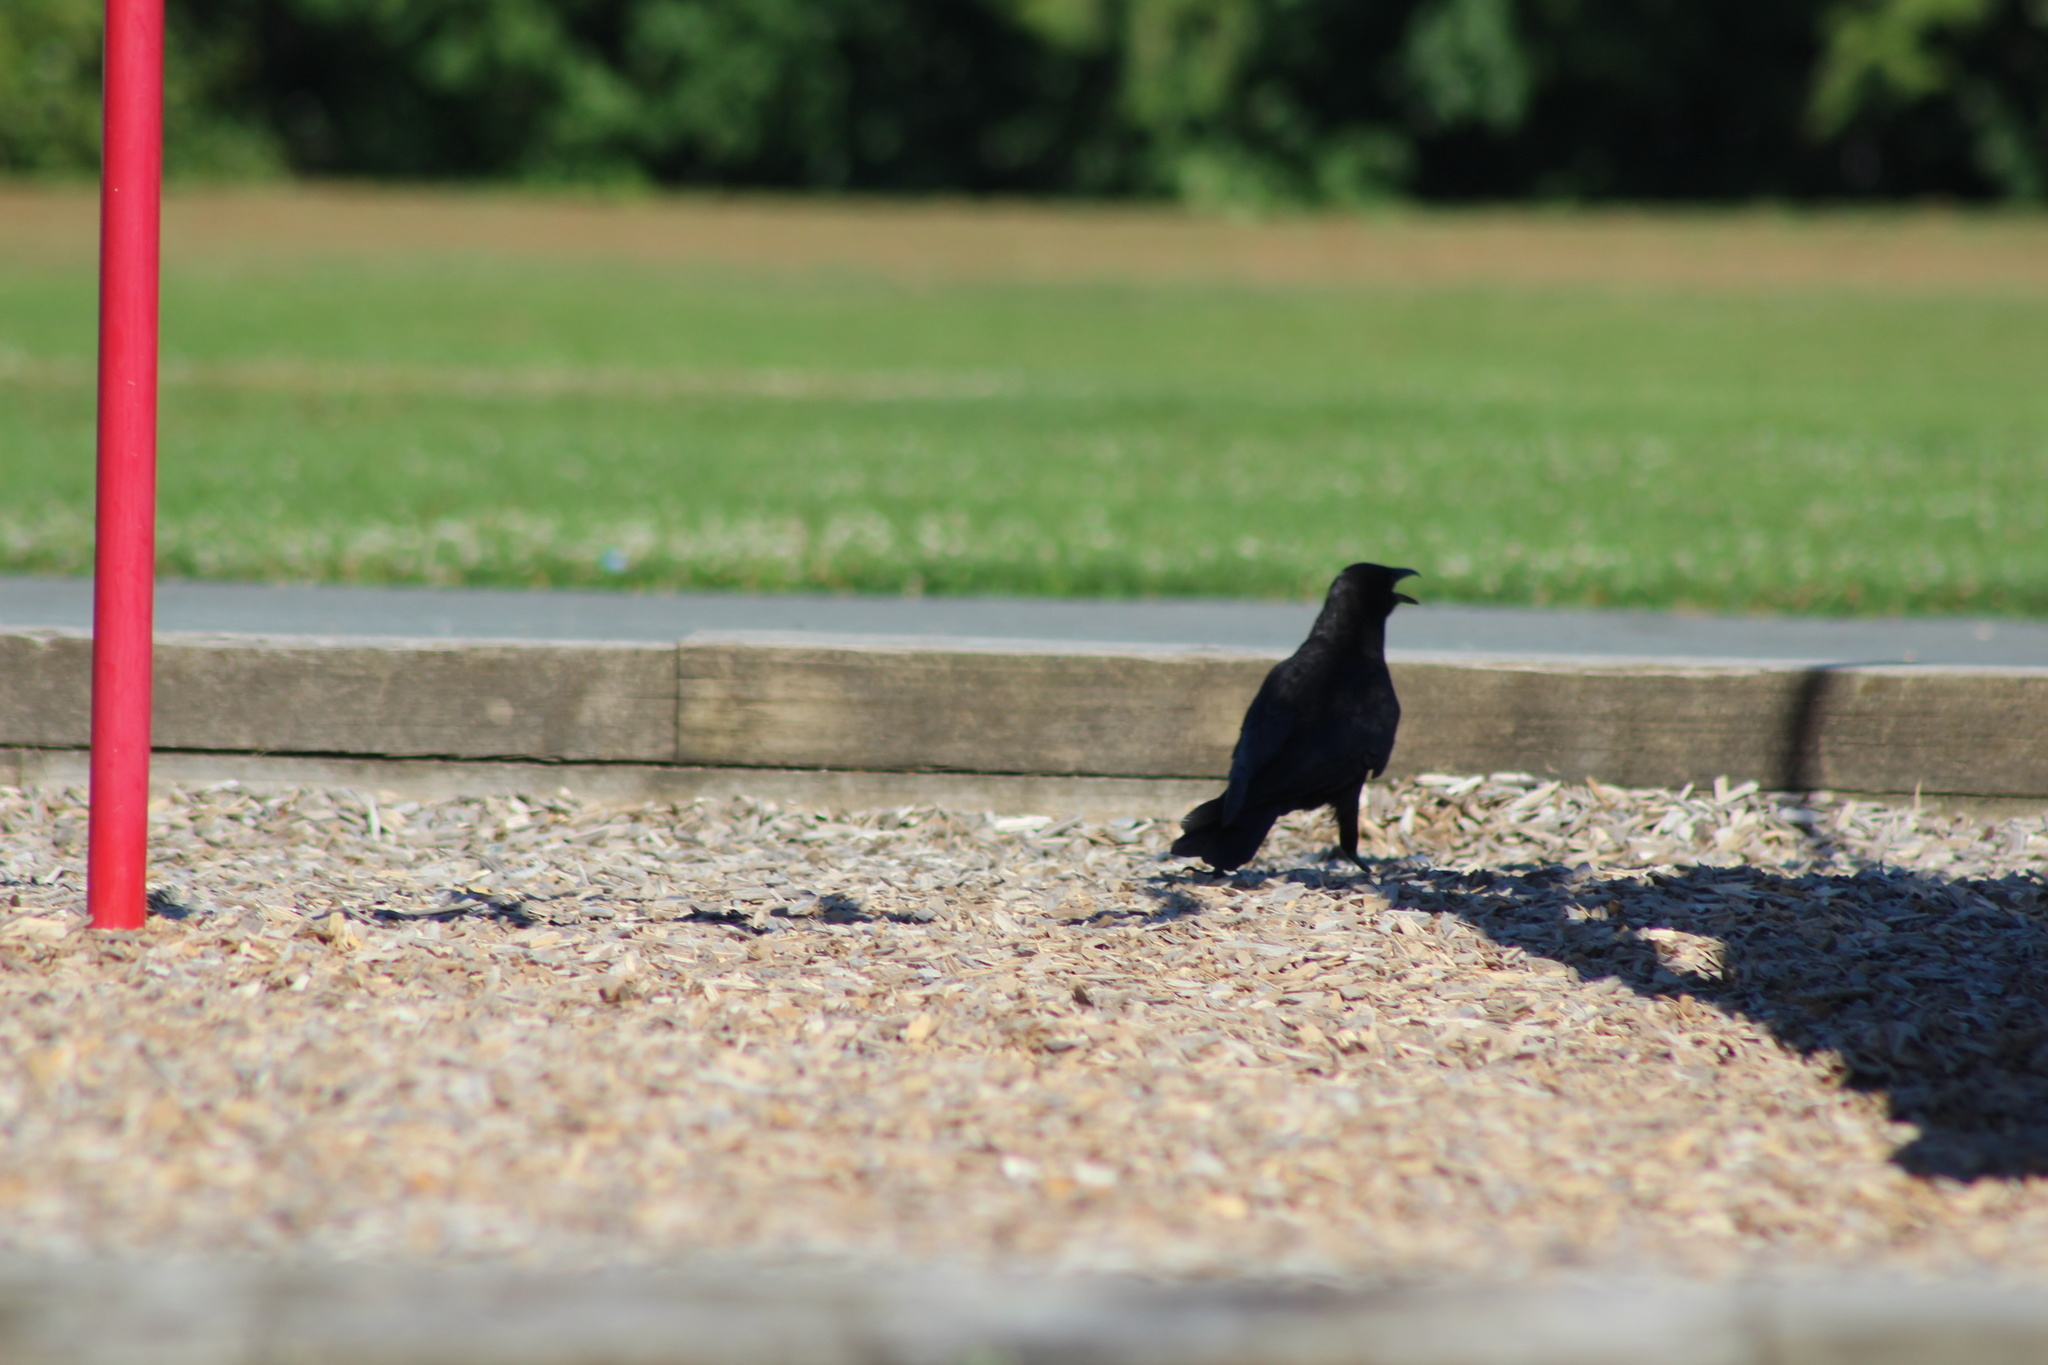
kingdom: Animalia
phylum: Chordata
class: Aves
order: Passeriformes
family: Corvidae
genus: Corvus
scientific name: Corvus brachyrhynchos
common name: American crow
